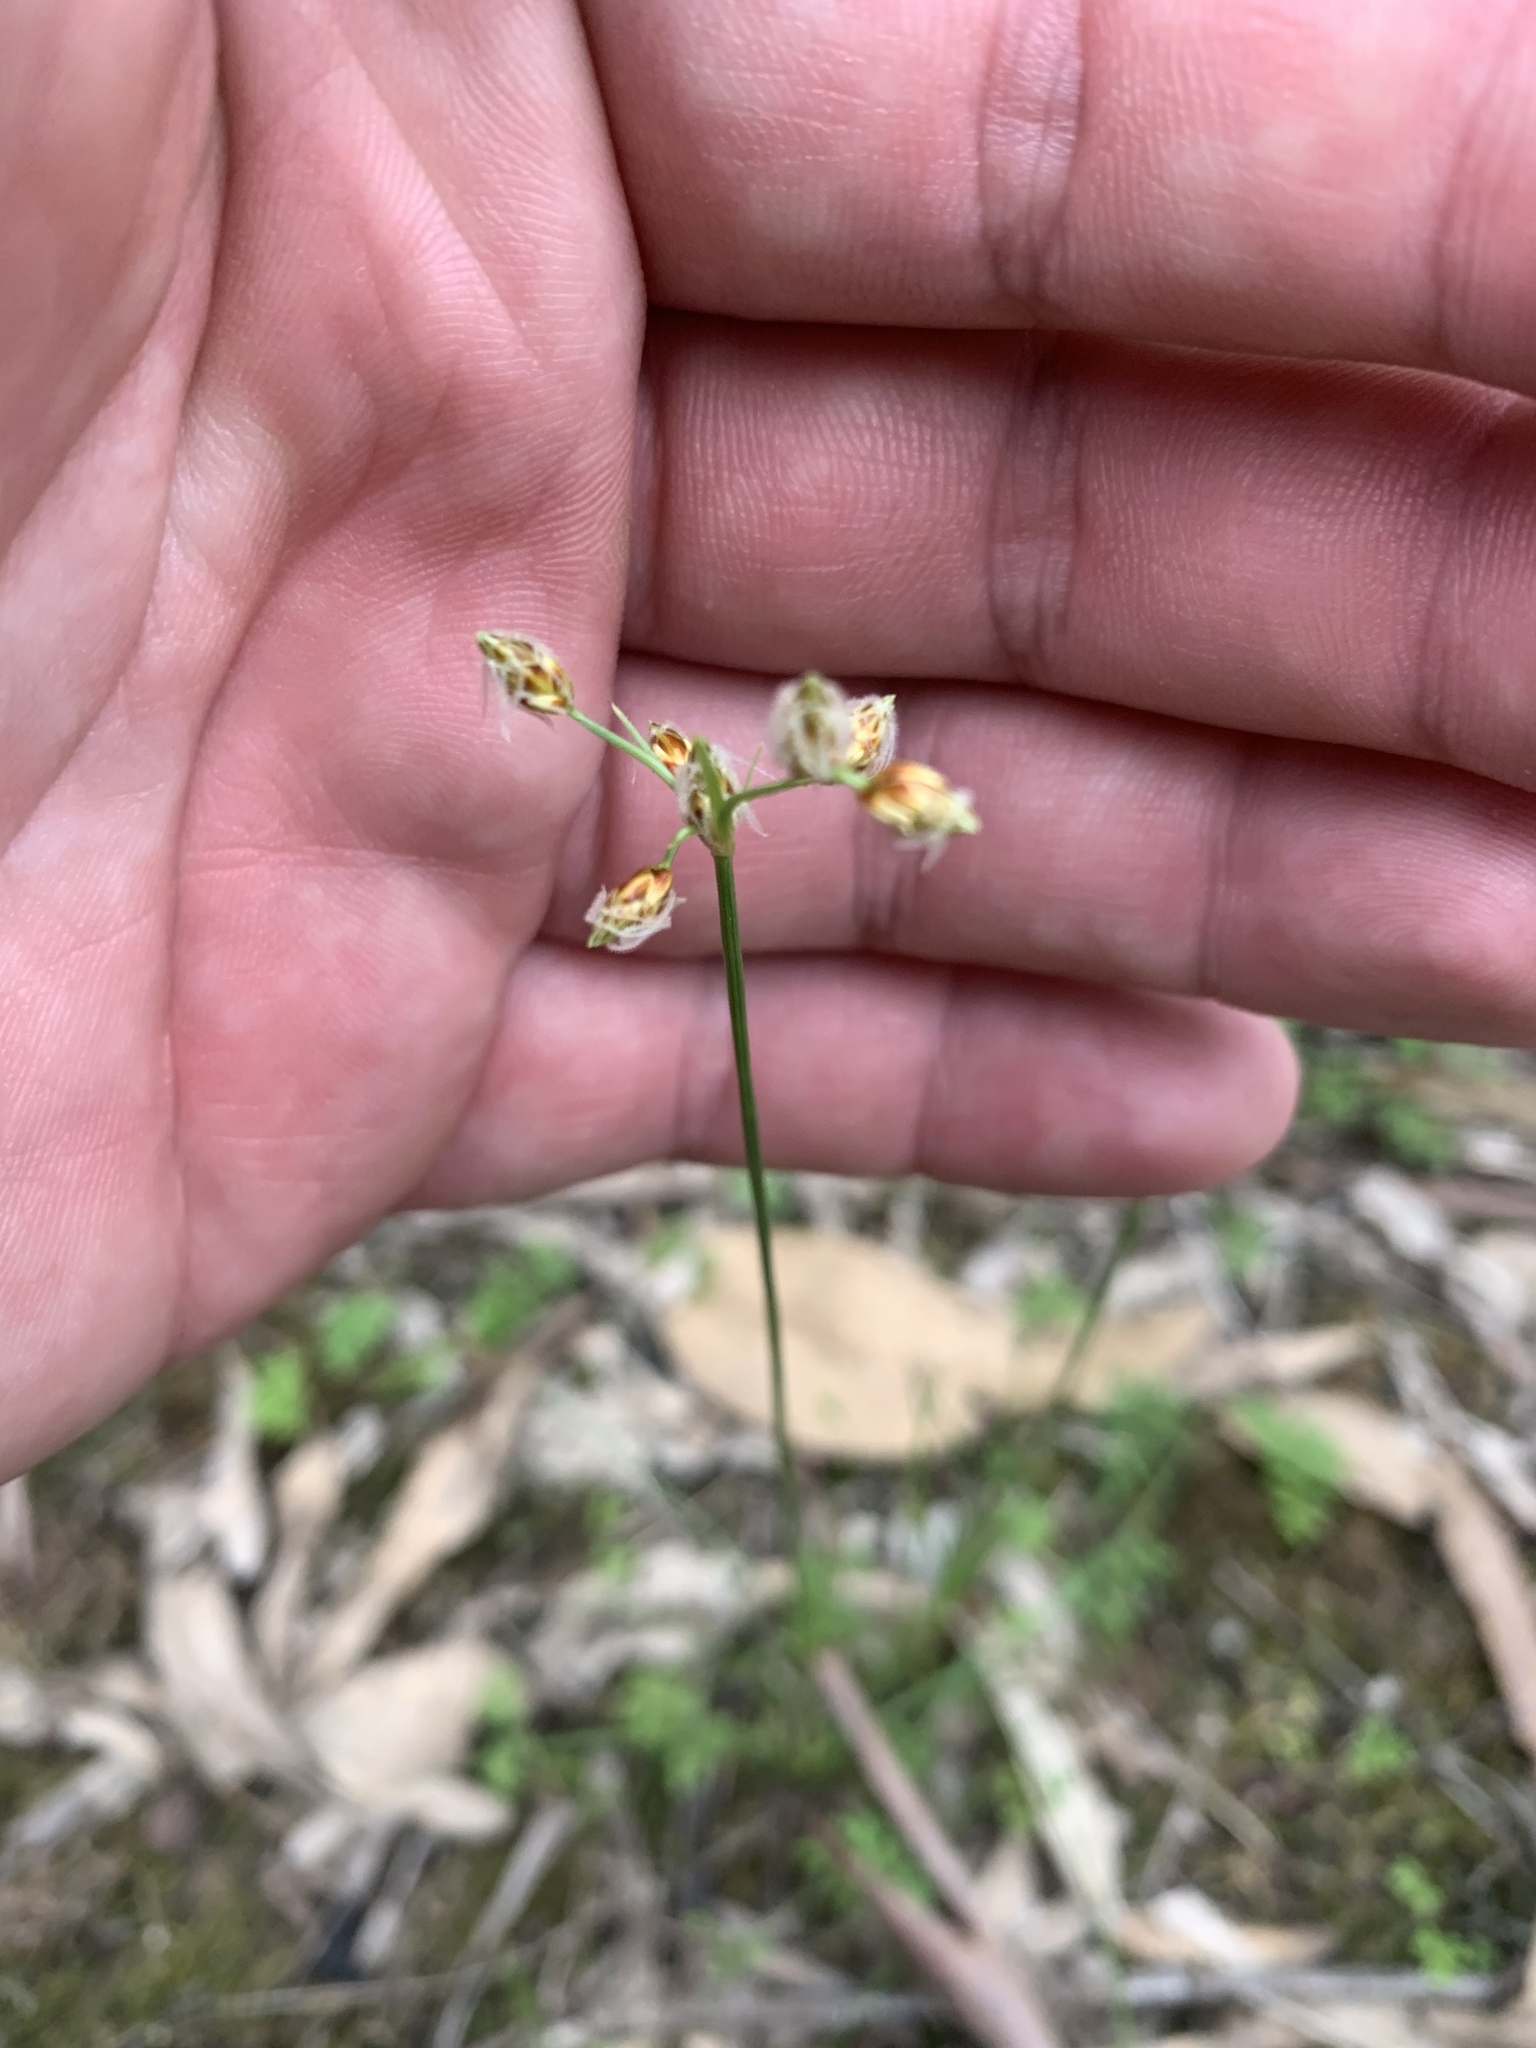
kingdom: Plantae
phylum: Tracheophyta
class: Liliopsida
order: Poales
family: Cyperaceae
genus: Fimbristylis
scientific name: Fimbristylis dichotoma
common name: Forked fimbry
